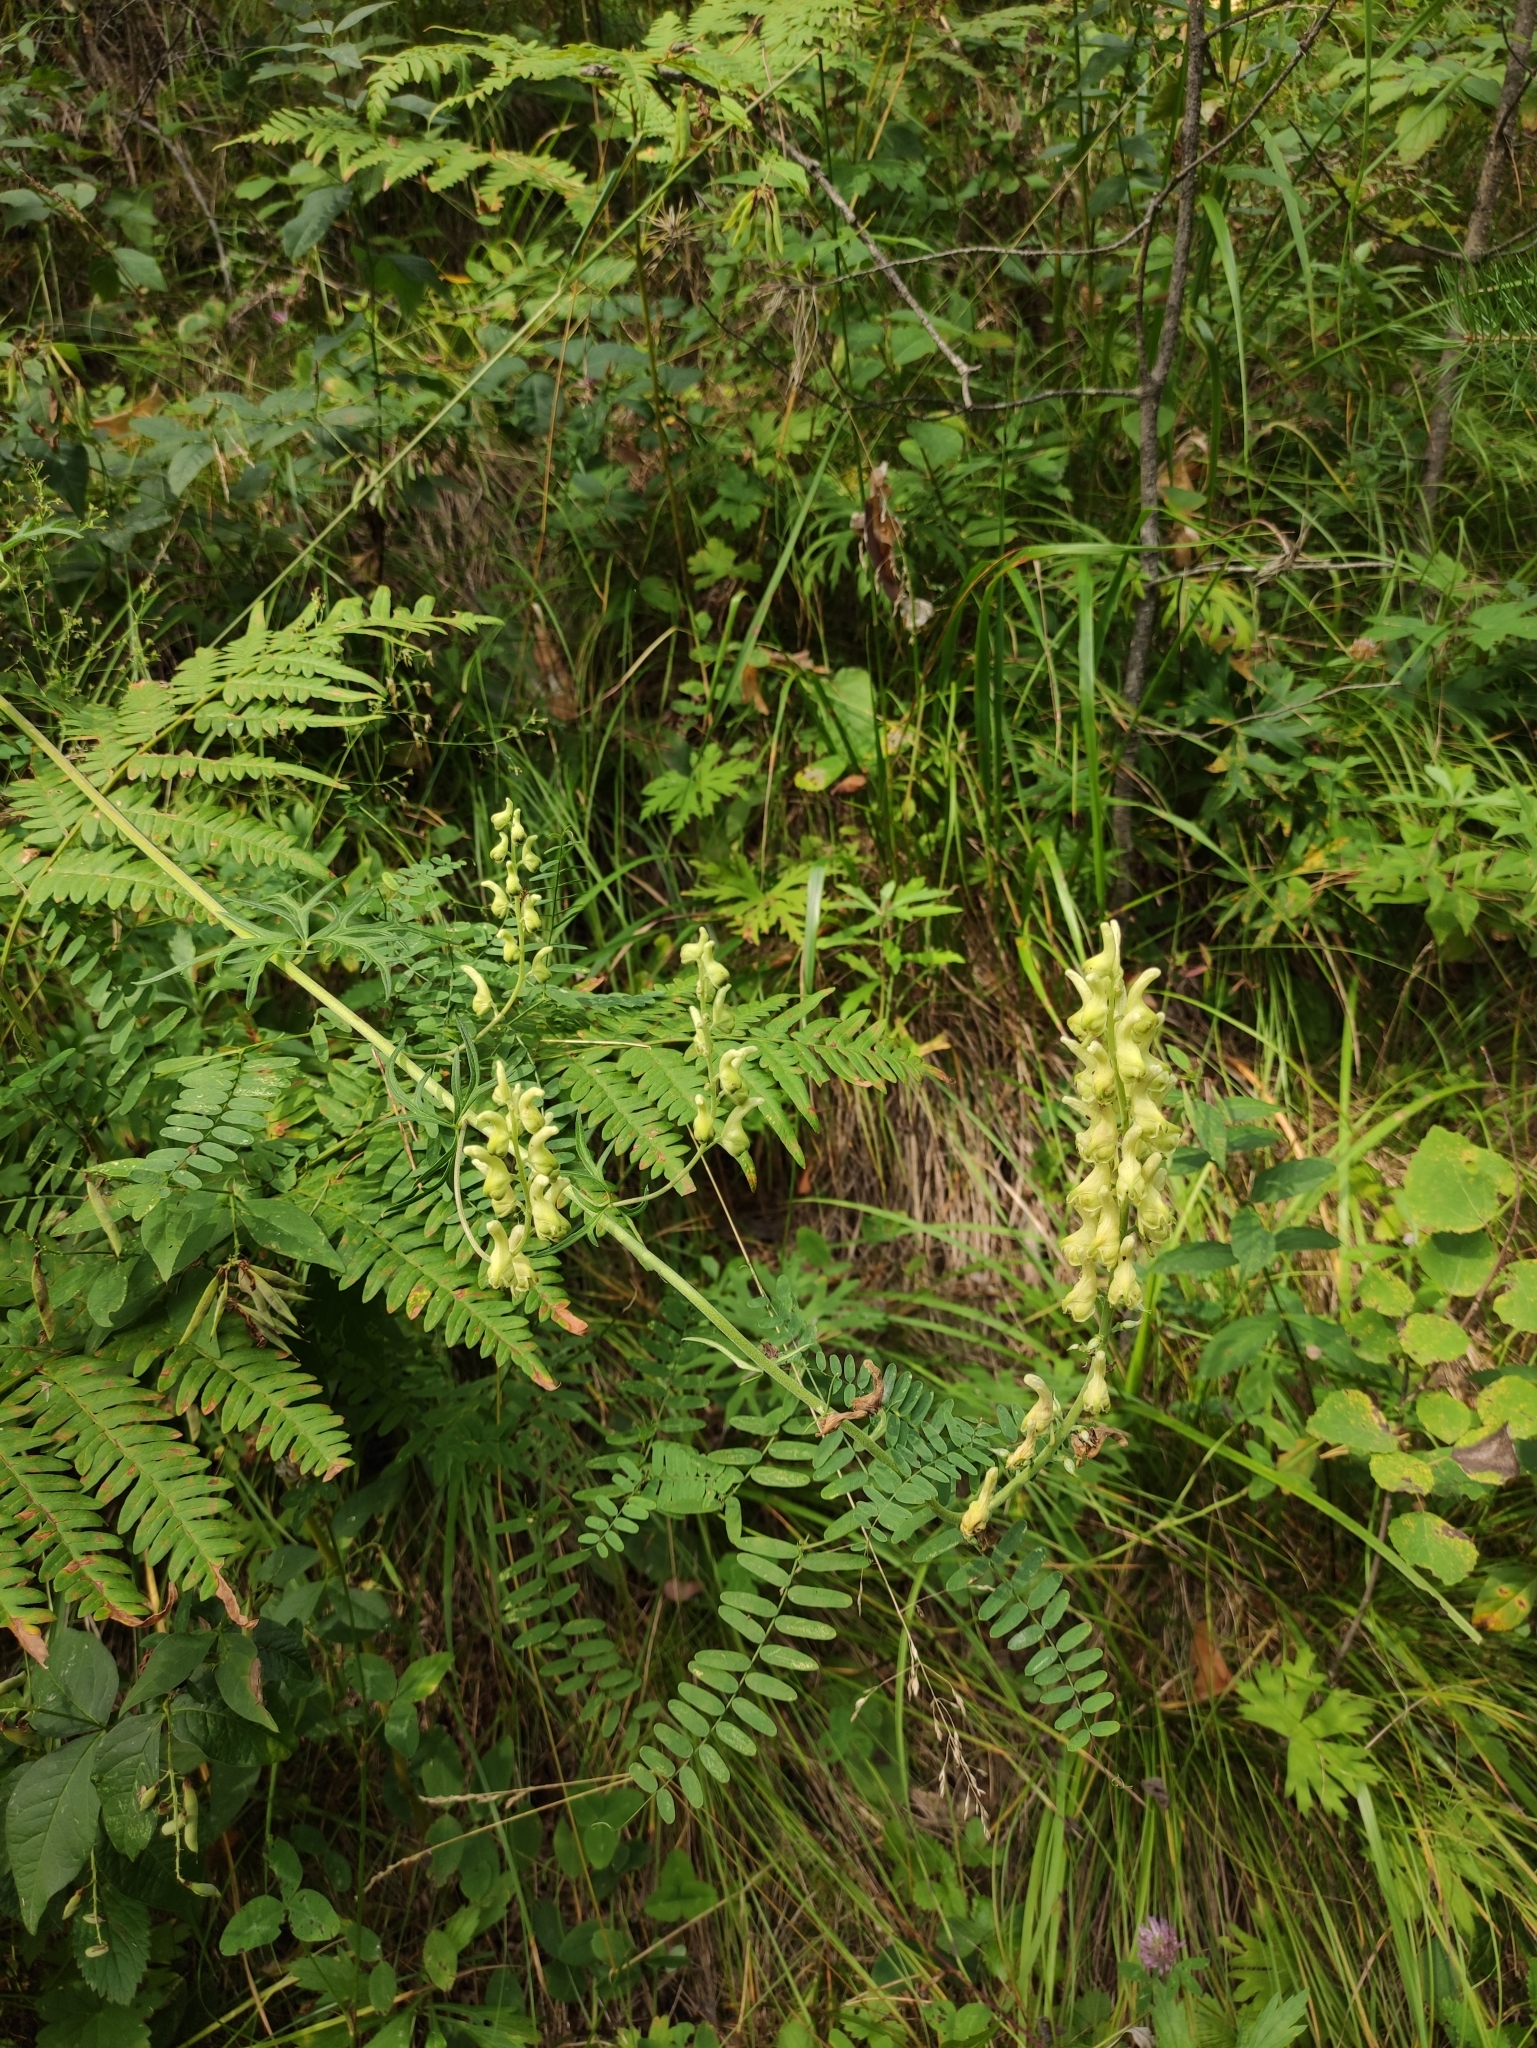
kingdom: Plantae
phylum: Tracheophyta
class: Magnoliopsida
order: Ranunculales
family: Ranunculaceae
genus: Aconitum
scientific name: Aconitum barbatum
